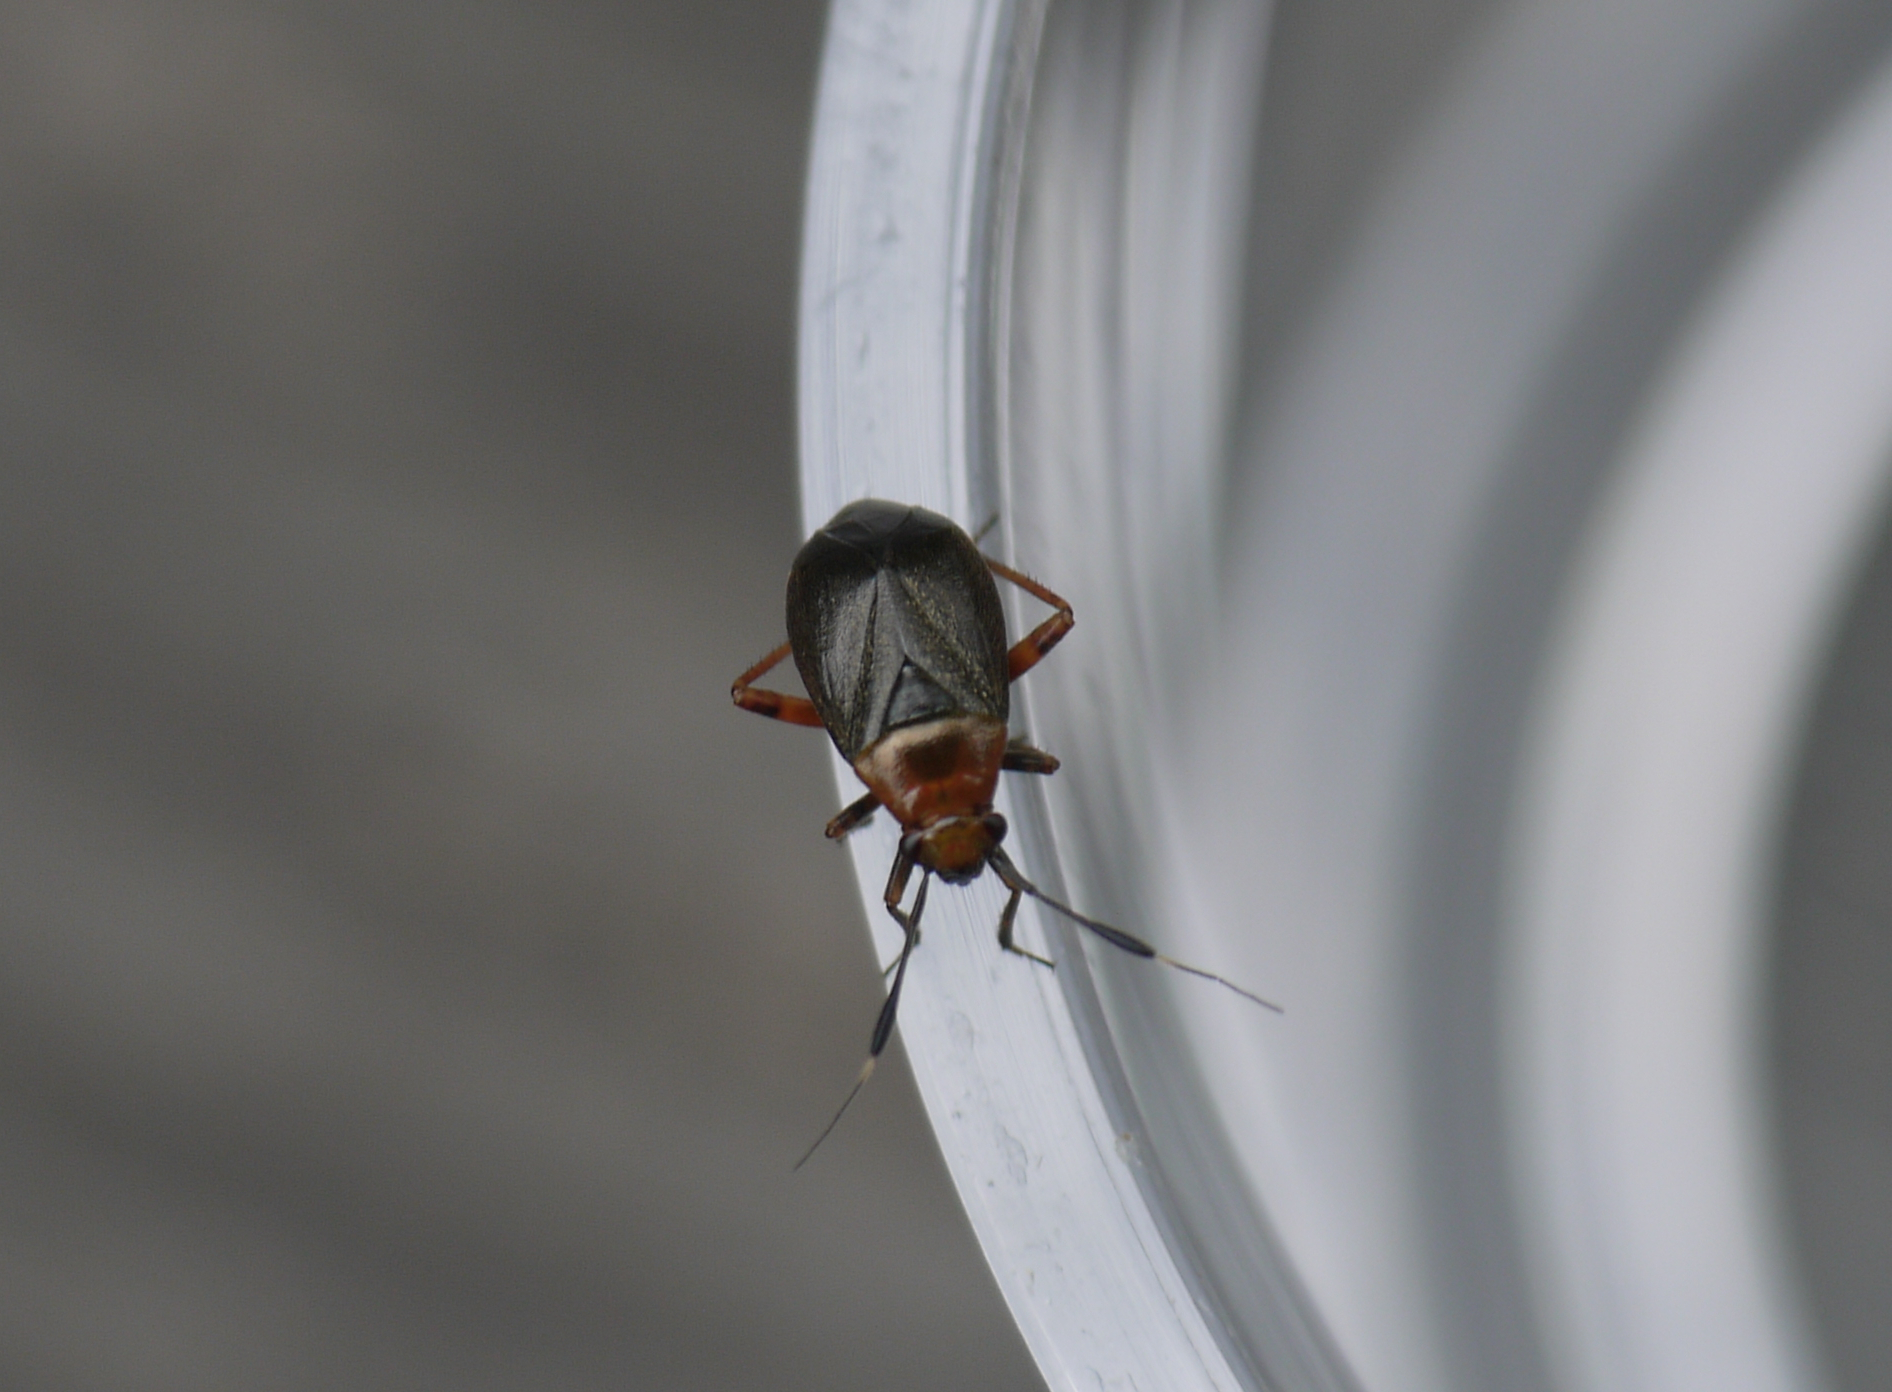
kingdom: Animalia
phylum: Arthropoda
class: Insecta
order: Hemiptera
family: Miridae
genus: Capsus
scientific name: Capsus ater
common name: Black plant bug
